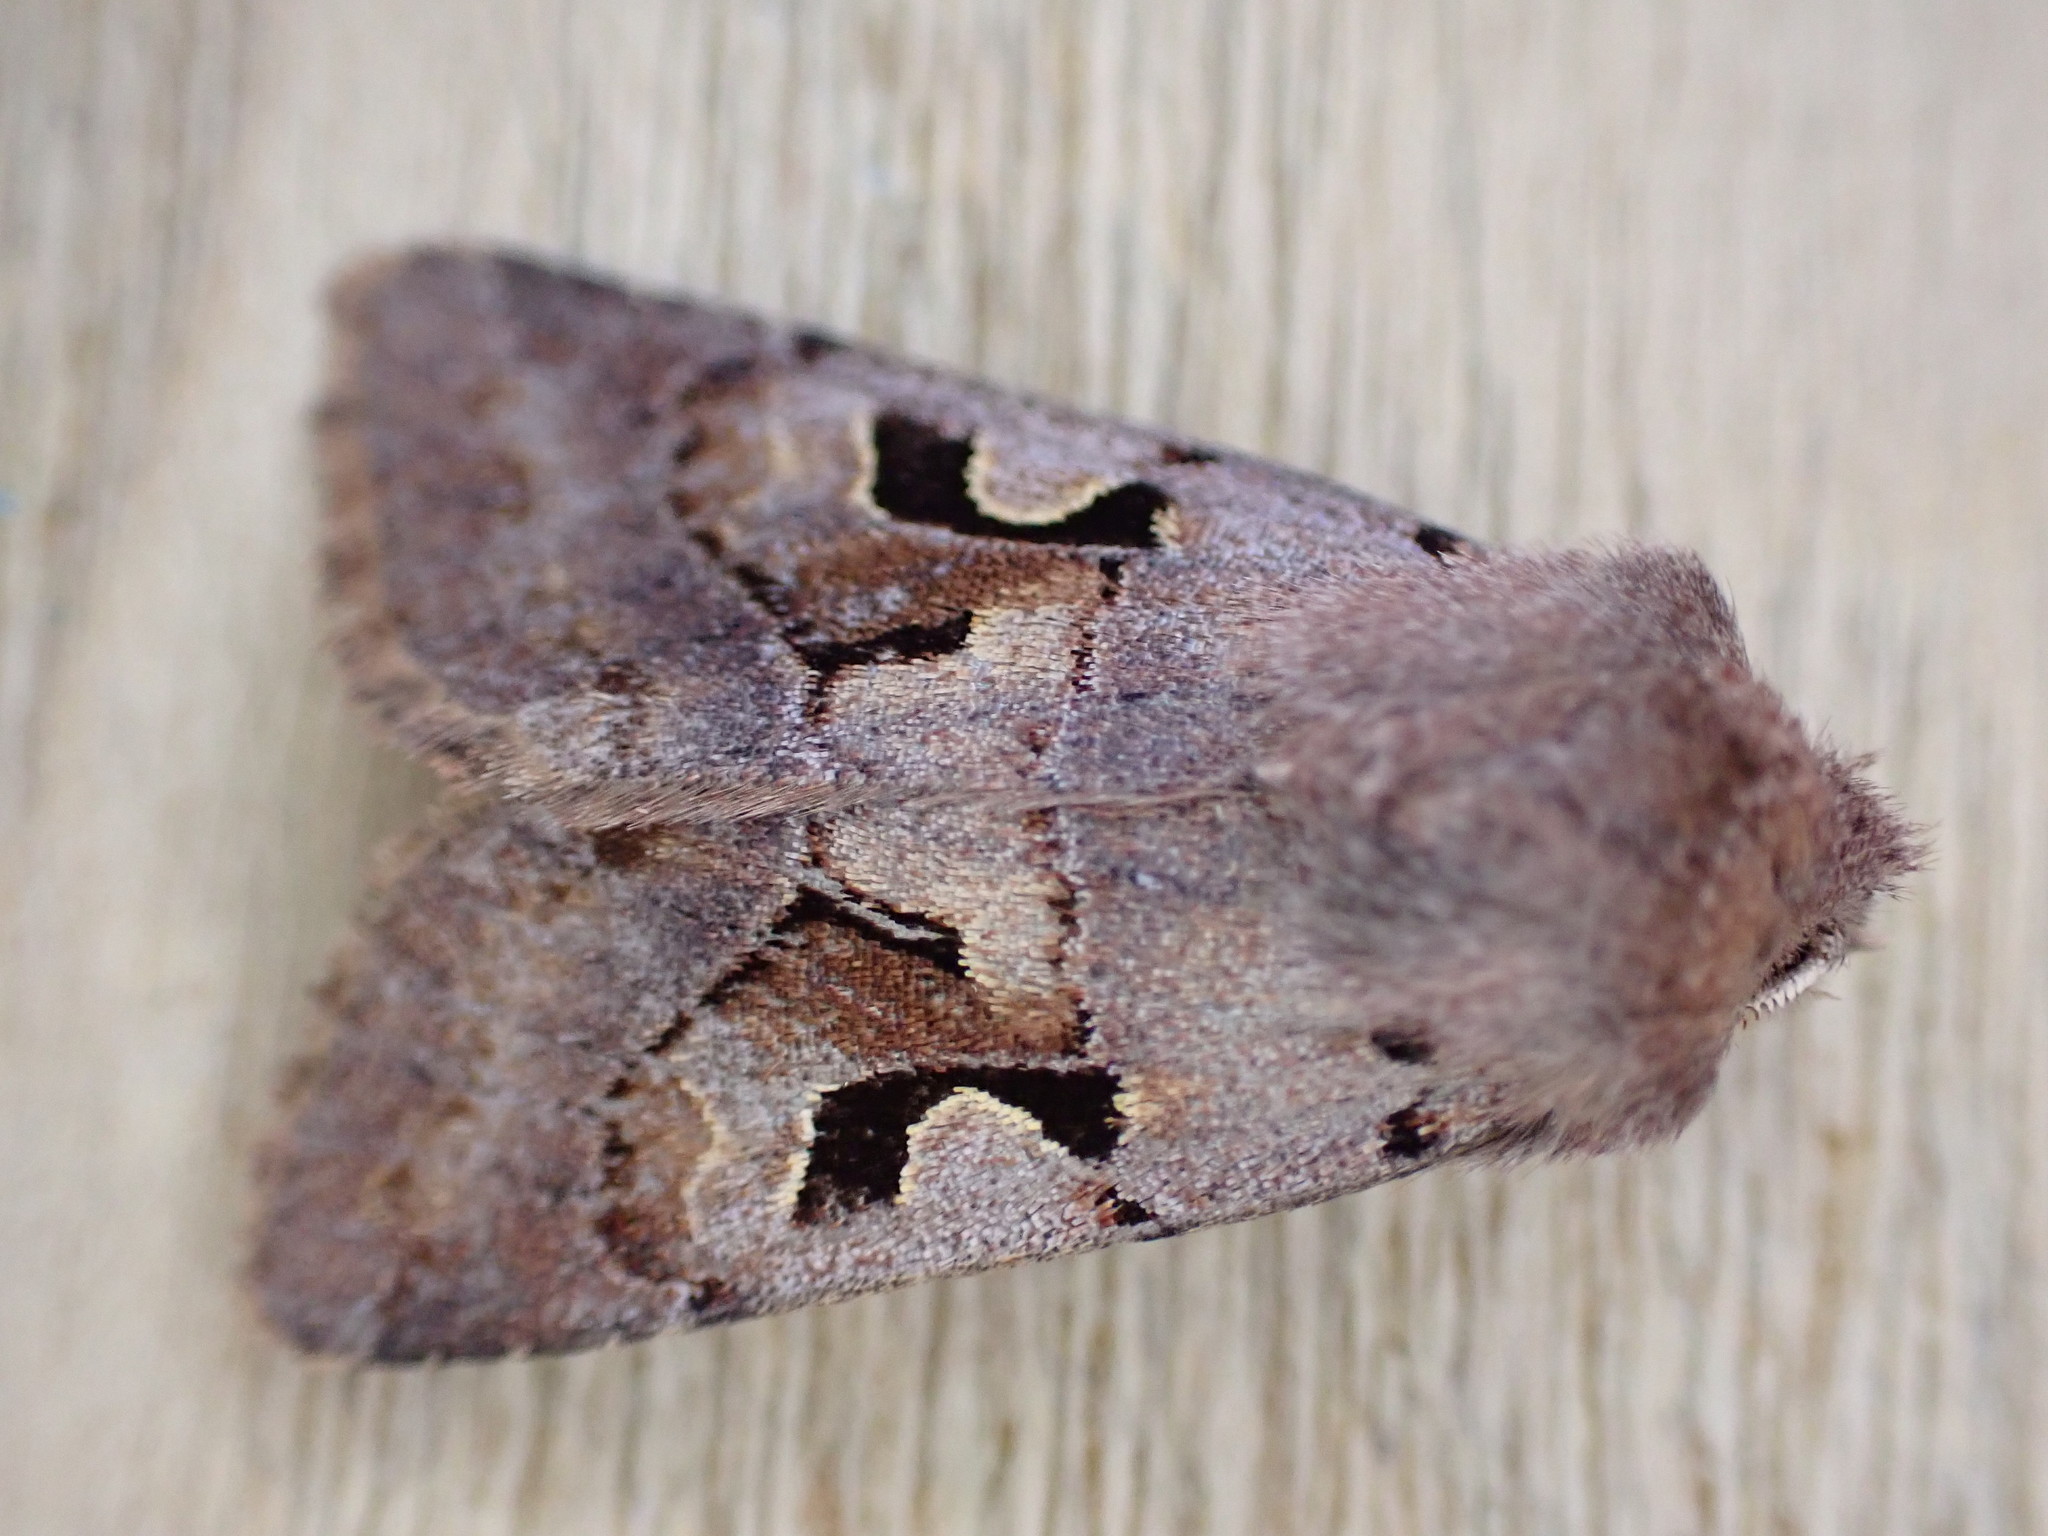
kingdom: Animalia
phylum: Arthropoda
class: Insecta
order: Lepidoptera
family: Noctuidae
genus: Orthosia
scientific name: Orthosia gothica
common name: Hebrew character
